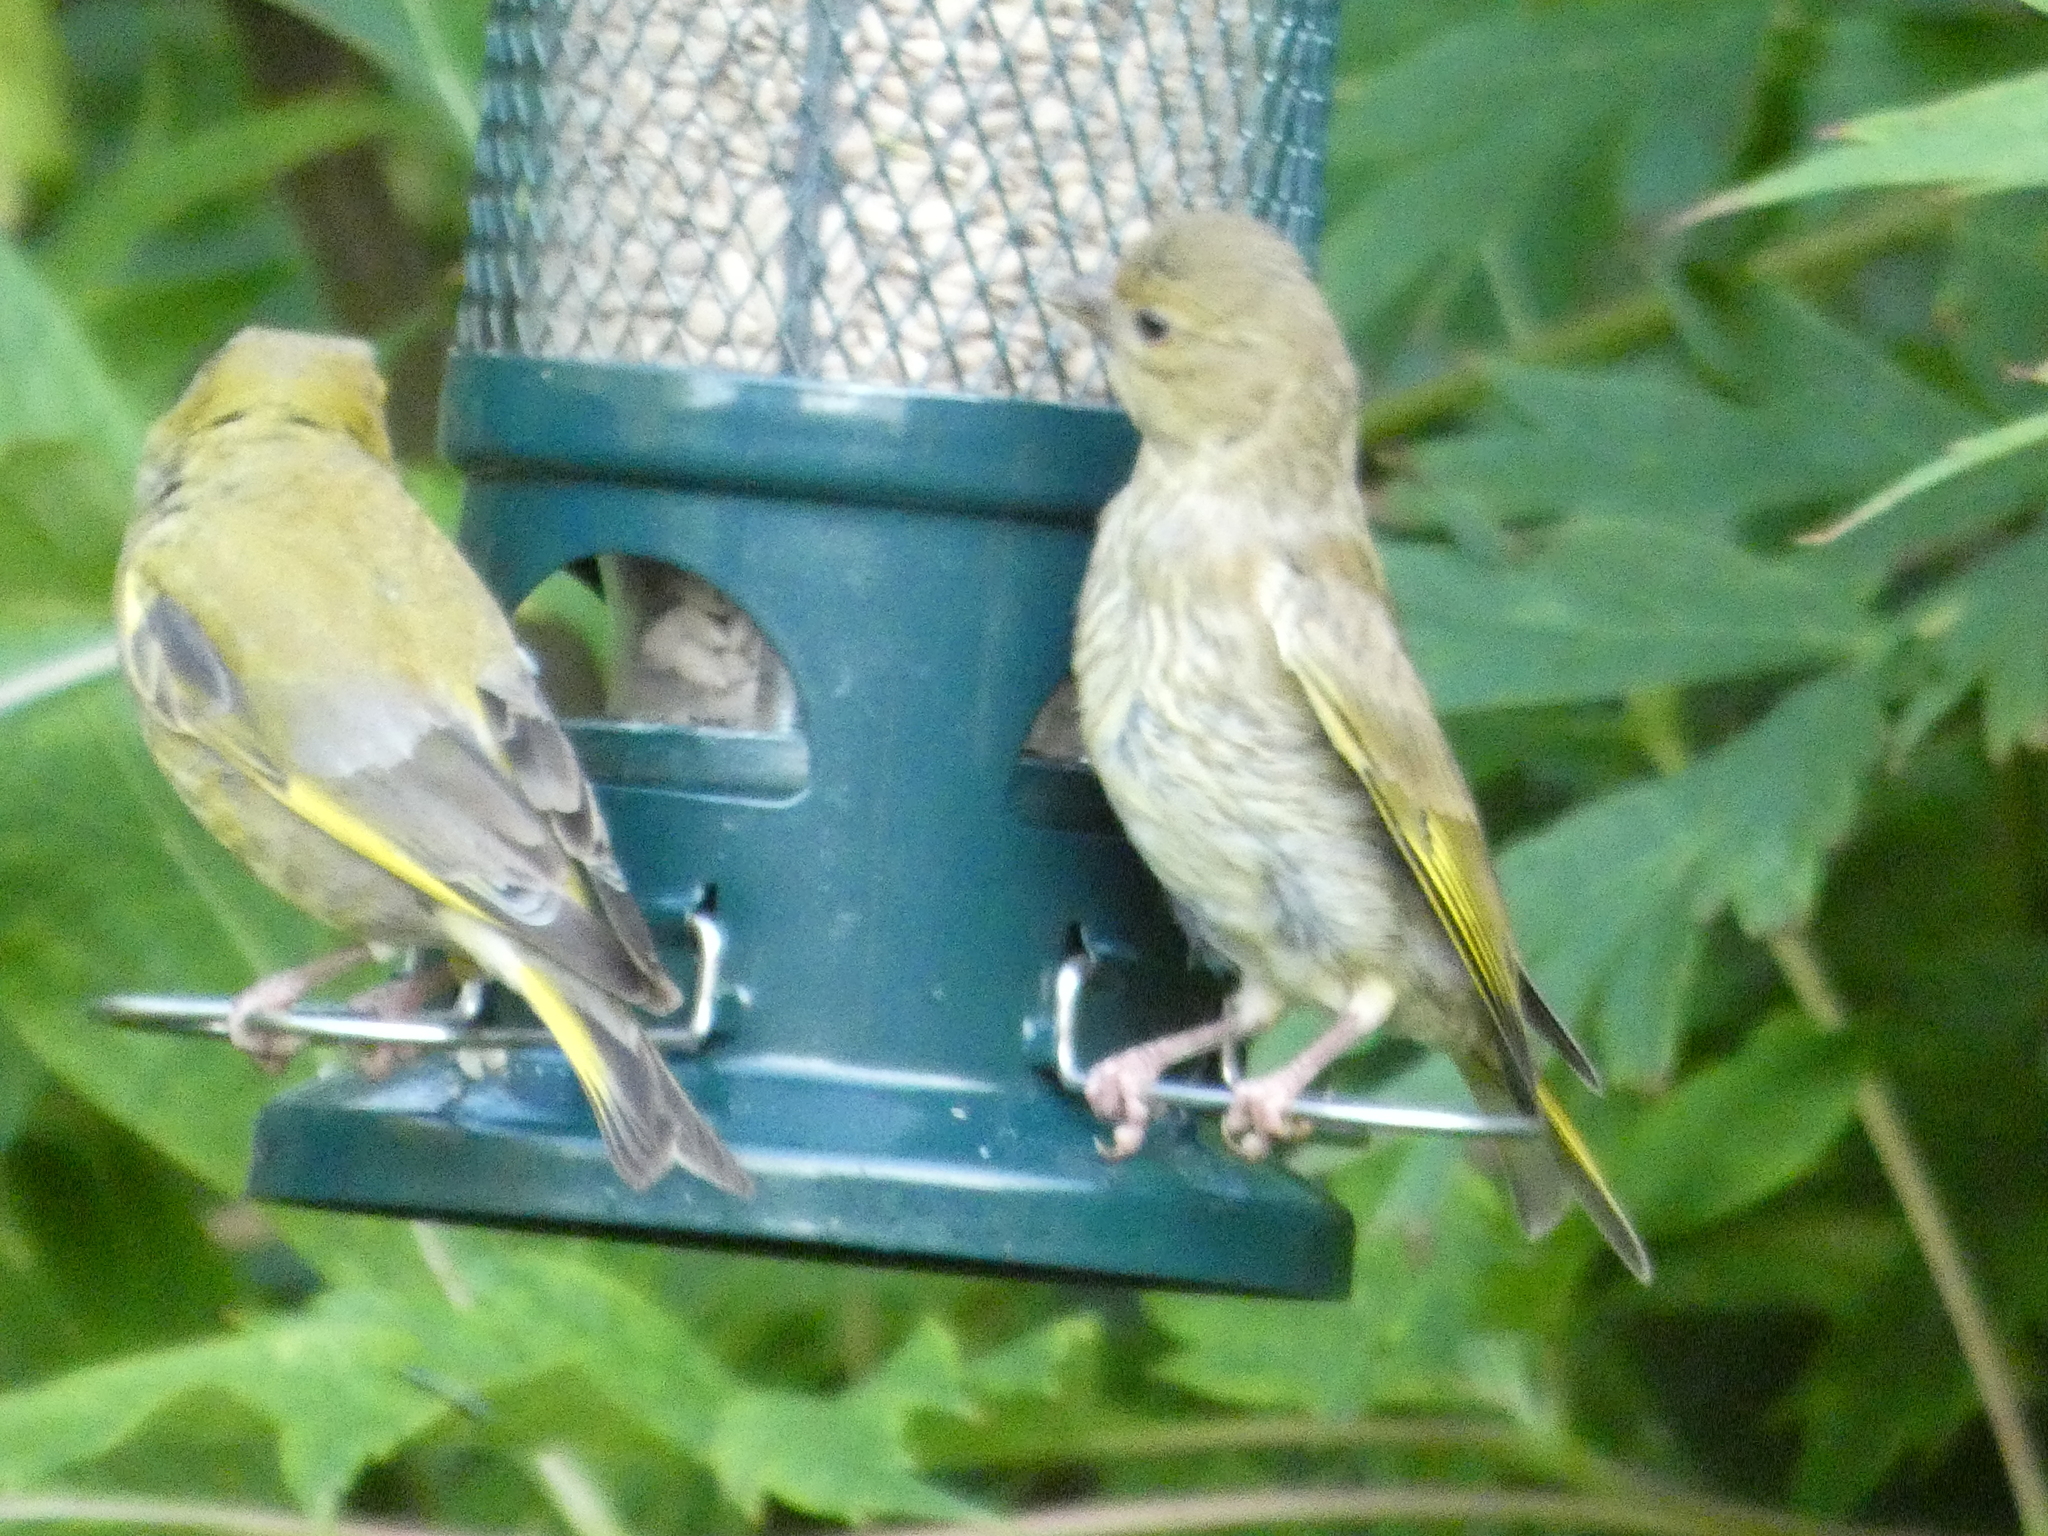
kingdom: Plantae
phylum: Tracheophyta
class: Liliopsida
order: Poales
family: Poaceae
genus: Chloris
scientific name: Chloris chloris
